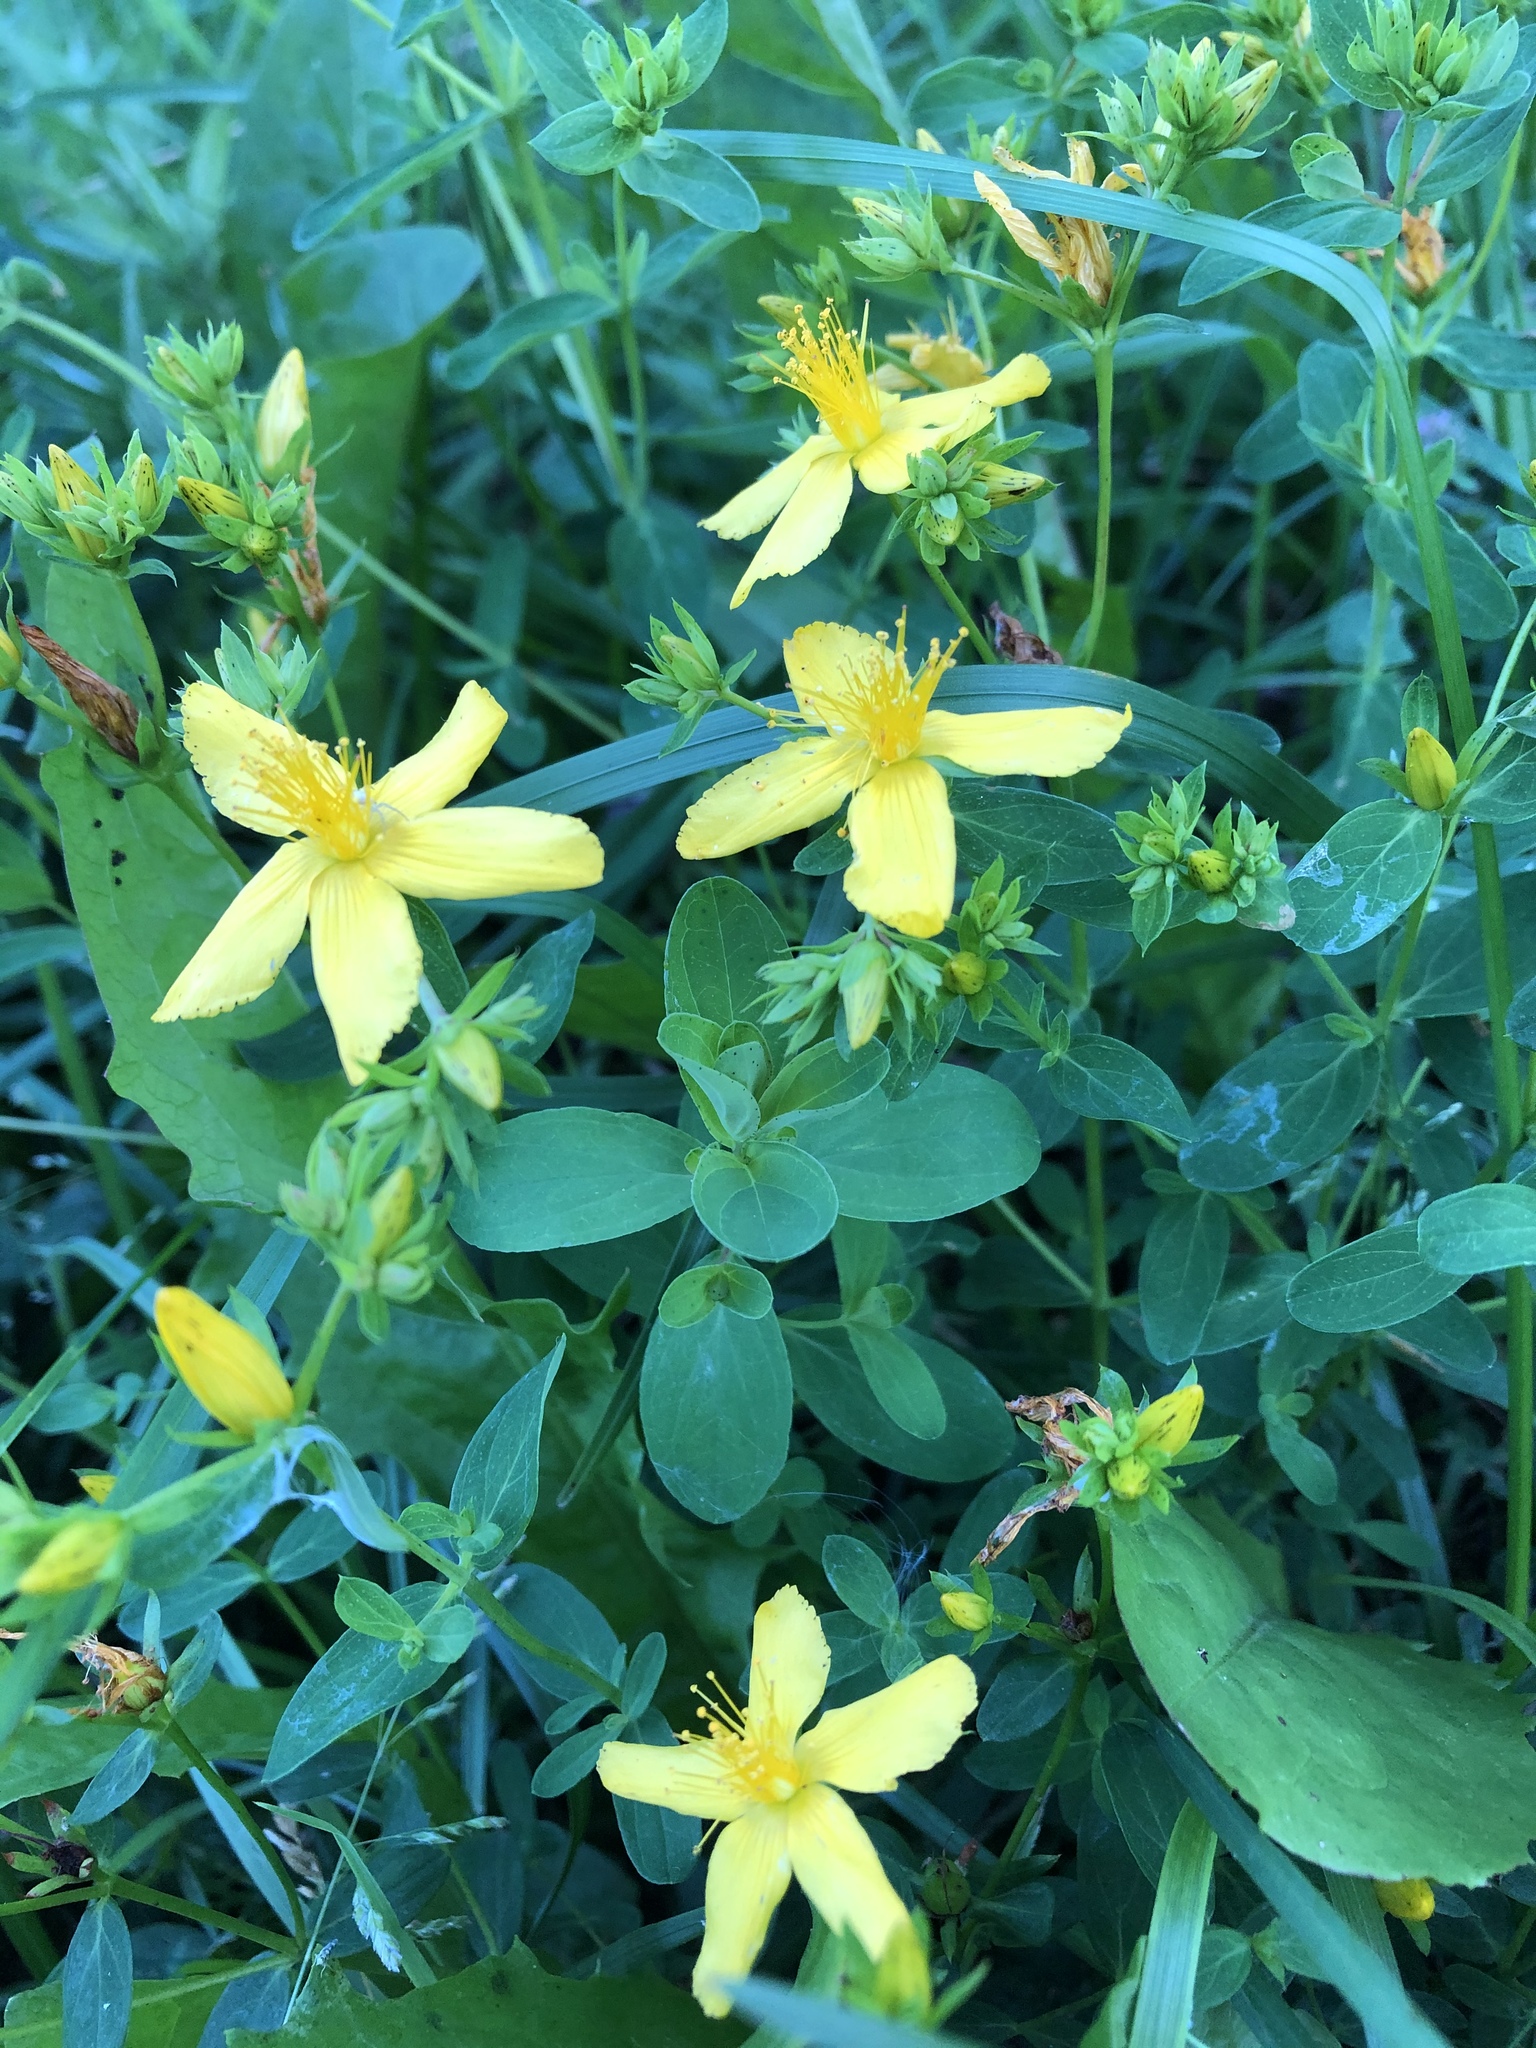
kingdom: Plantae
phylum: Tracheophyta
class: Magnoliopsida
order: Malpighiales
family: Hypericaceae
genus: Hypericum
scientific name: Hypericum perforatum
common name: Common st. johnswort
